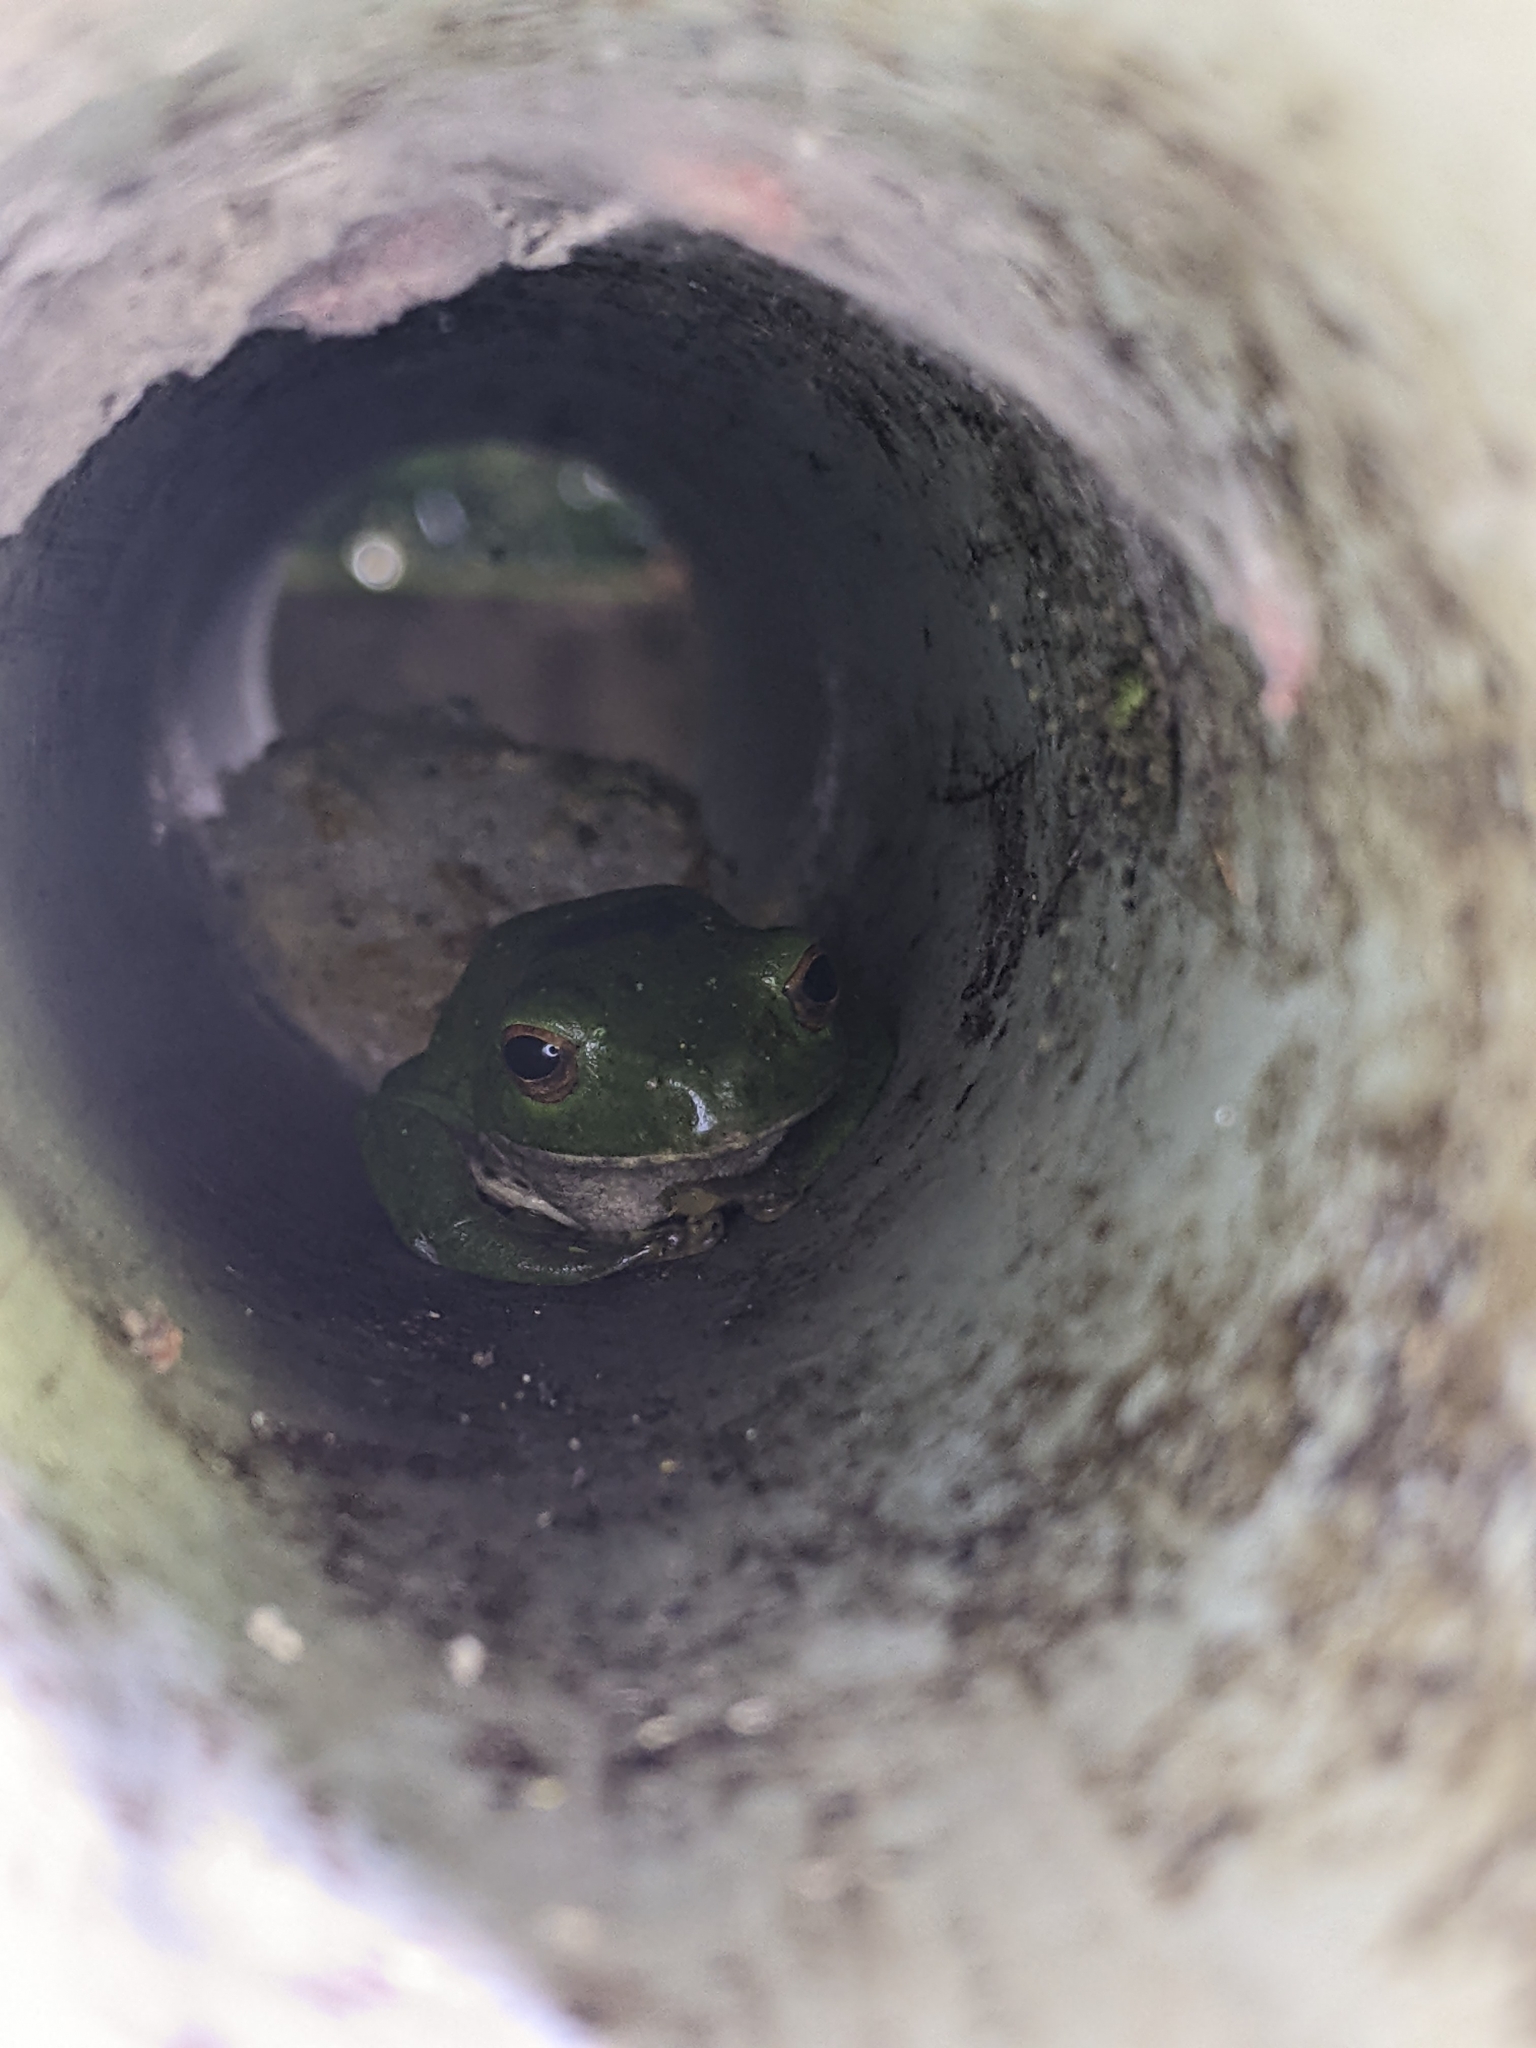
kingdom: Animalia
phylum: Chordata
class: Amphibia
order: Anura
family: Rhacophoridae
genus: Zhangixalus
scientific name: Zhangixalus moltrechti
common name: Moltrecht's treefrog
